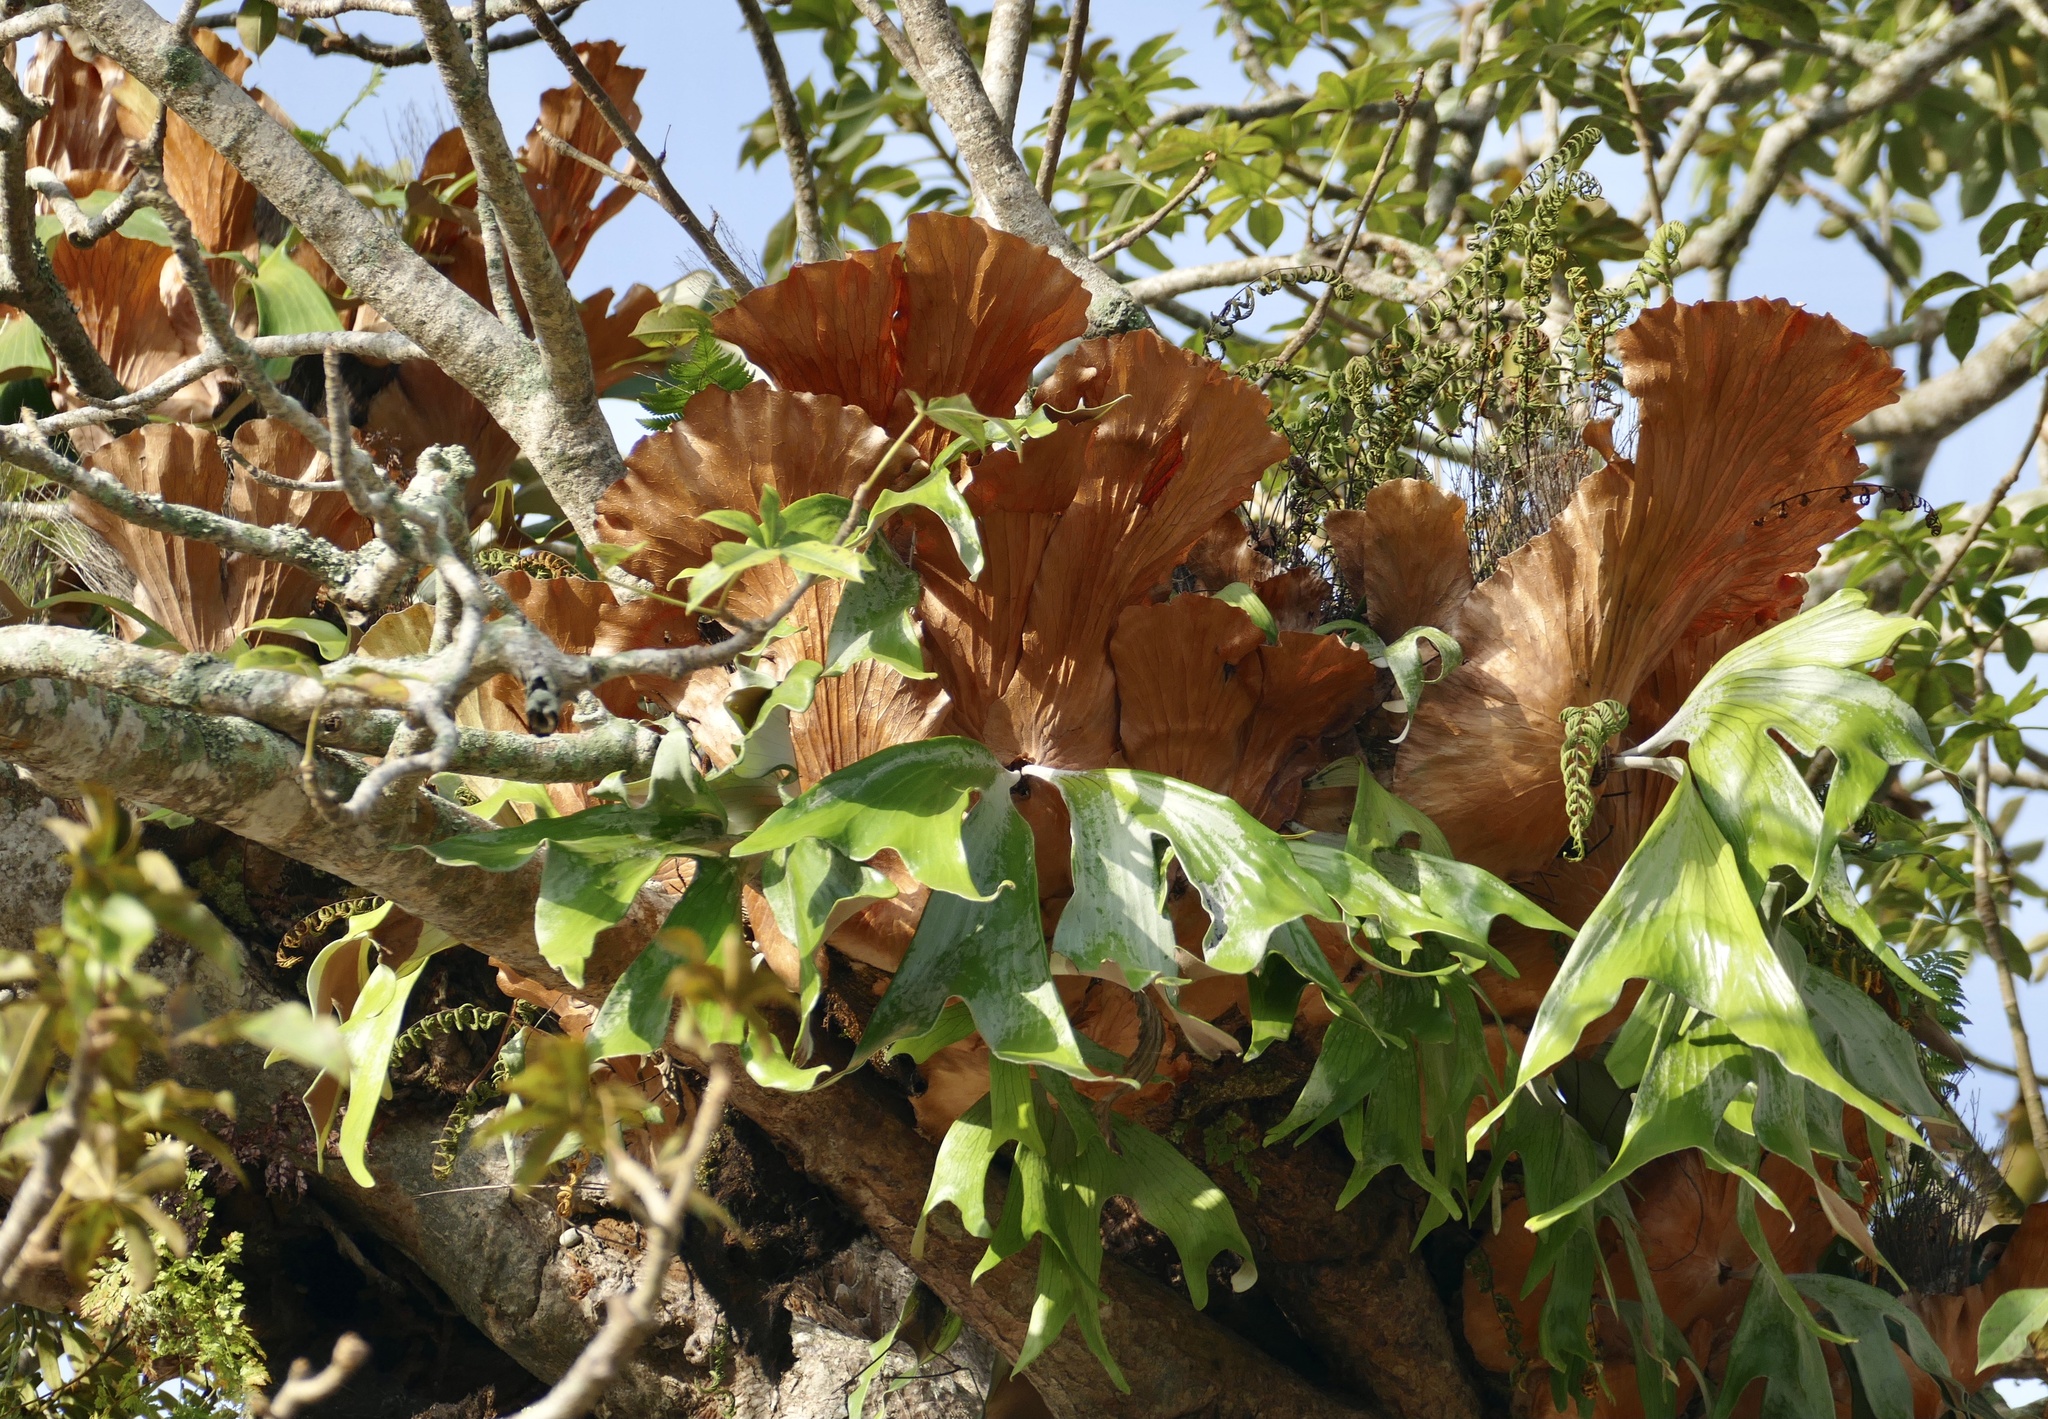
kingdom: Plantae
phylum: Tracheophyta
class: Polypodiopsida
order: Polypodiales
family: Polypodiaceae
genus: Platycerium
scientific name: Platycerium stemaria
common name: Triangular staghorn fern
